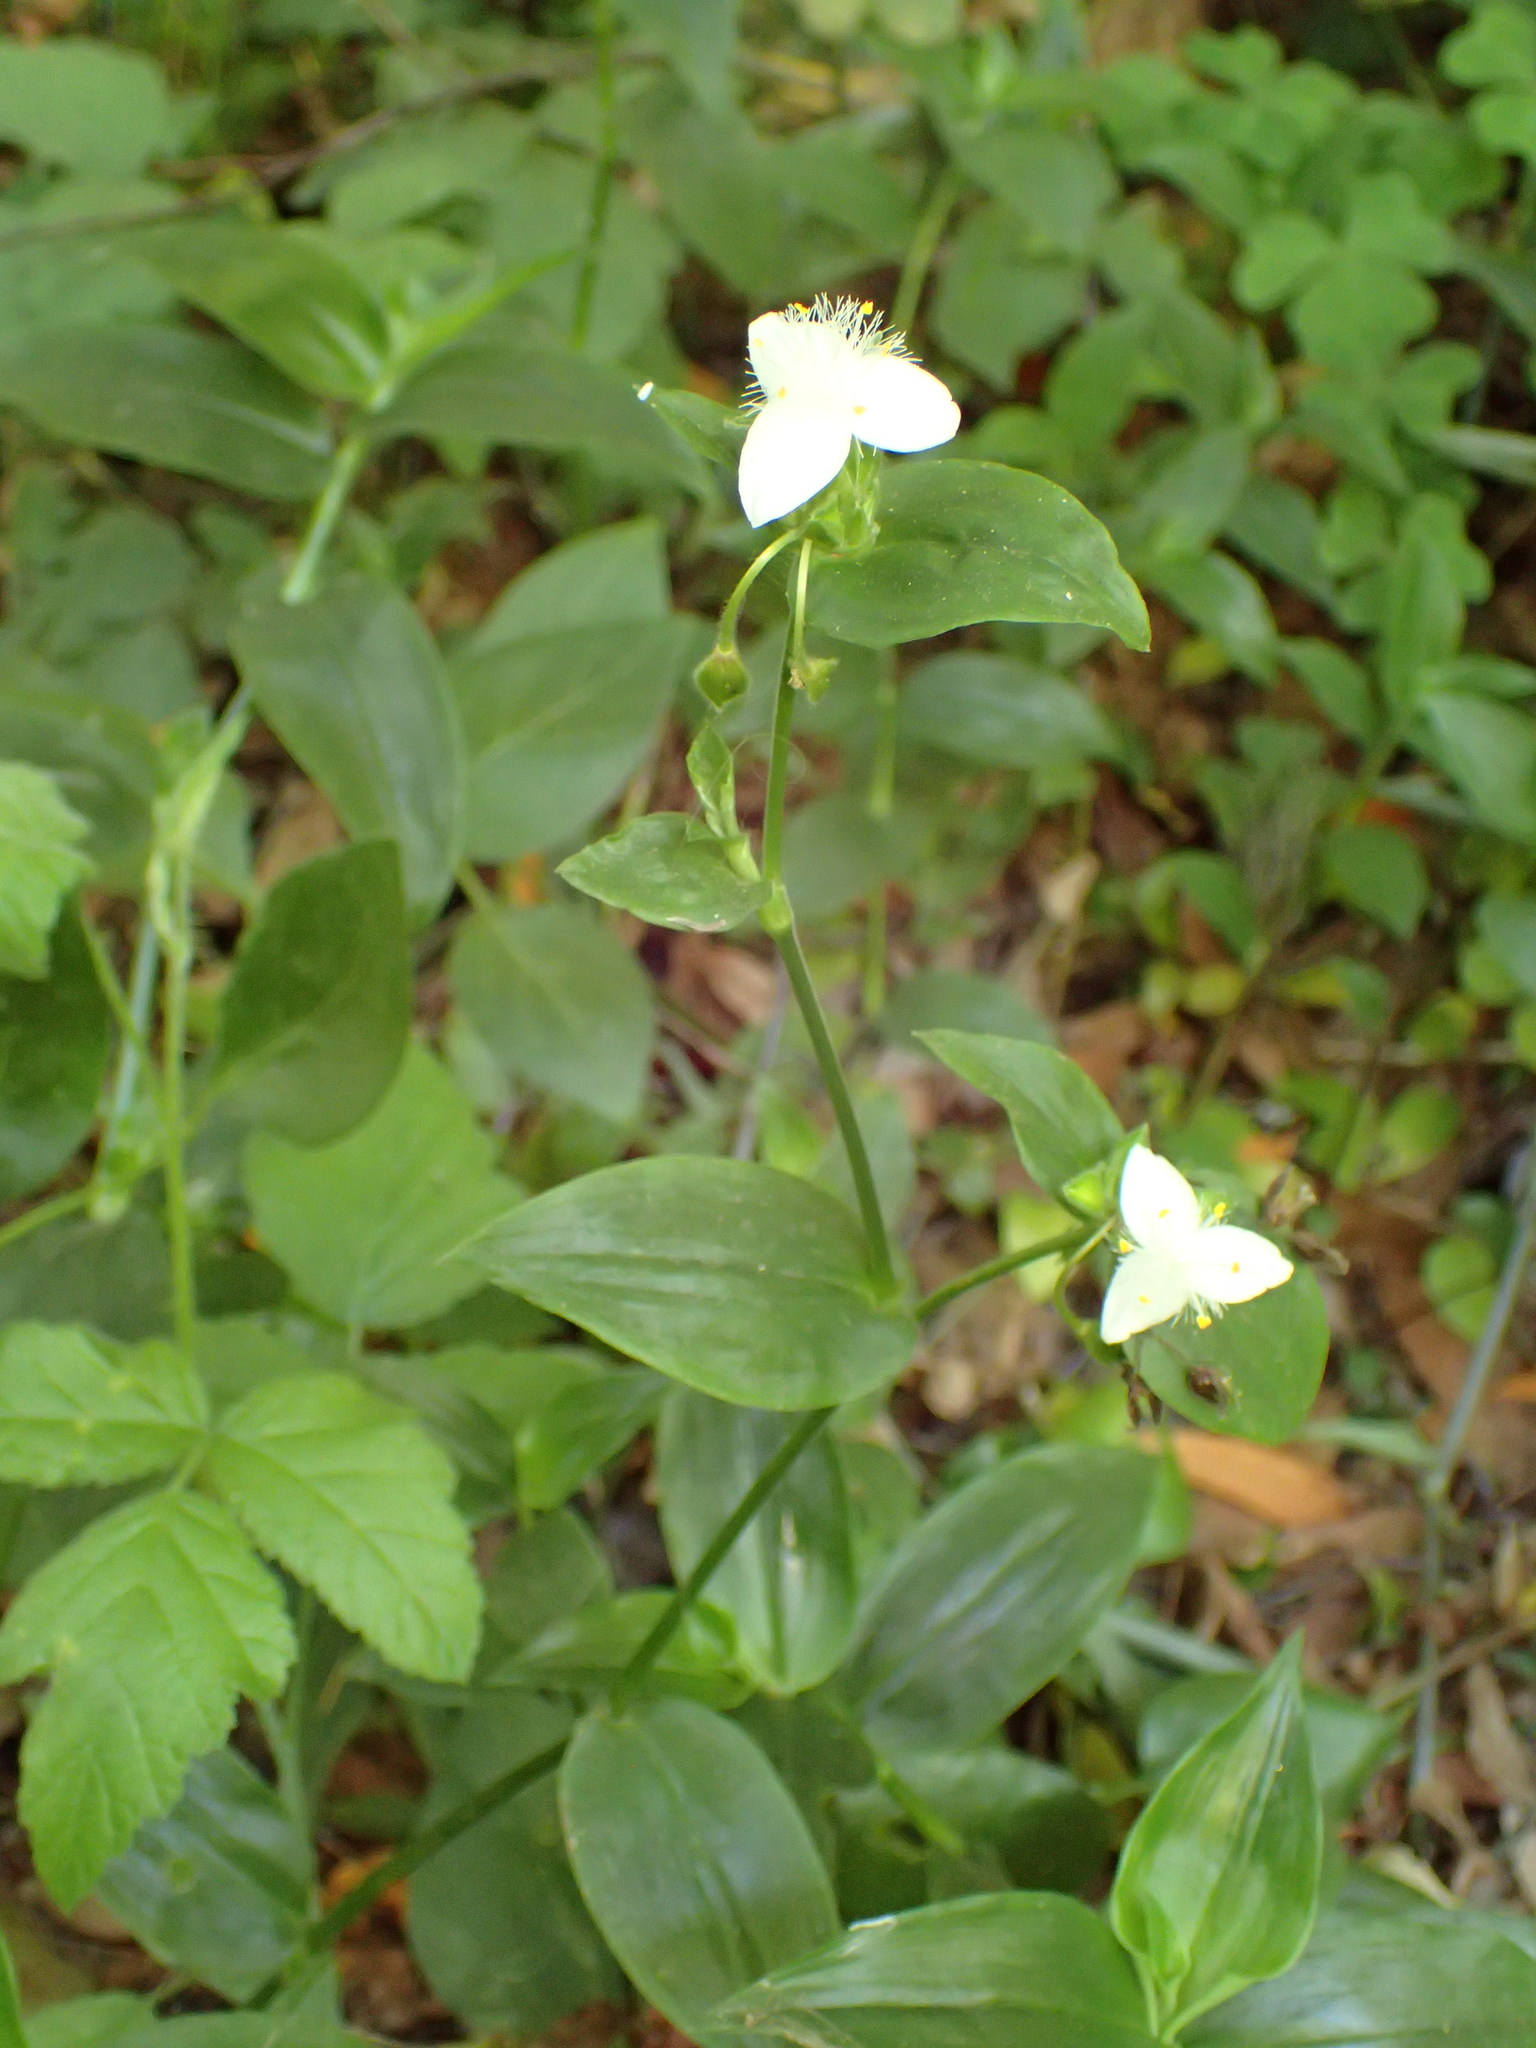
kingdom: Plantae
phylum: Tracheophyta
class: Liliopsida
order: Commelinales
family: Commelinaceae
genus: Tradescantia
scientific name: Tradescantia fluminensis
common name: Wandering-jew
